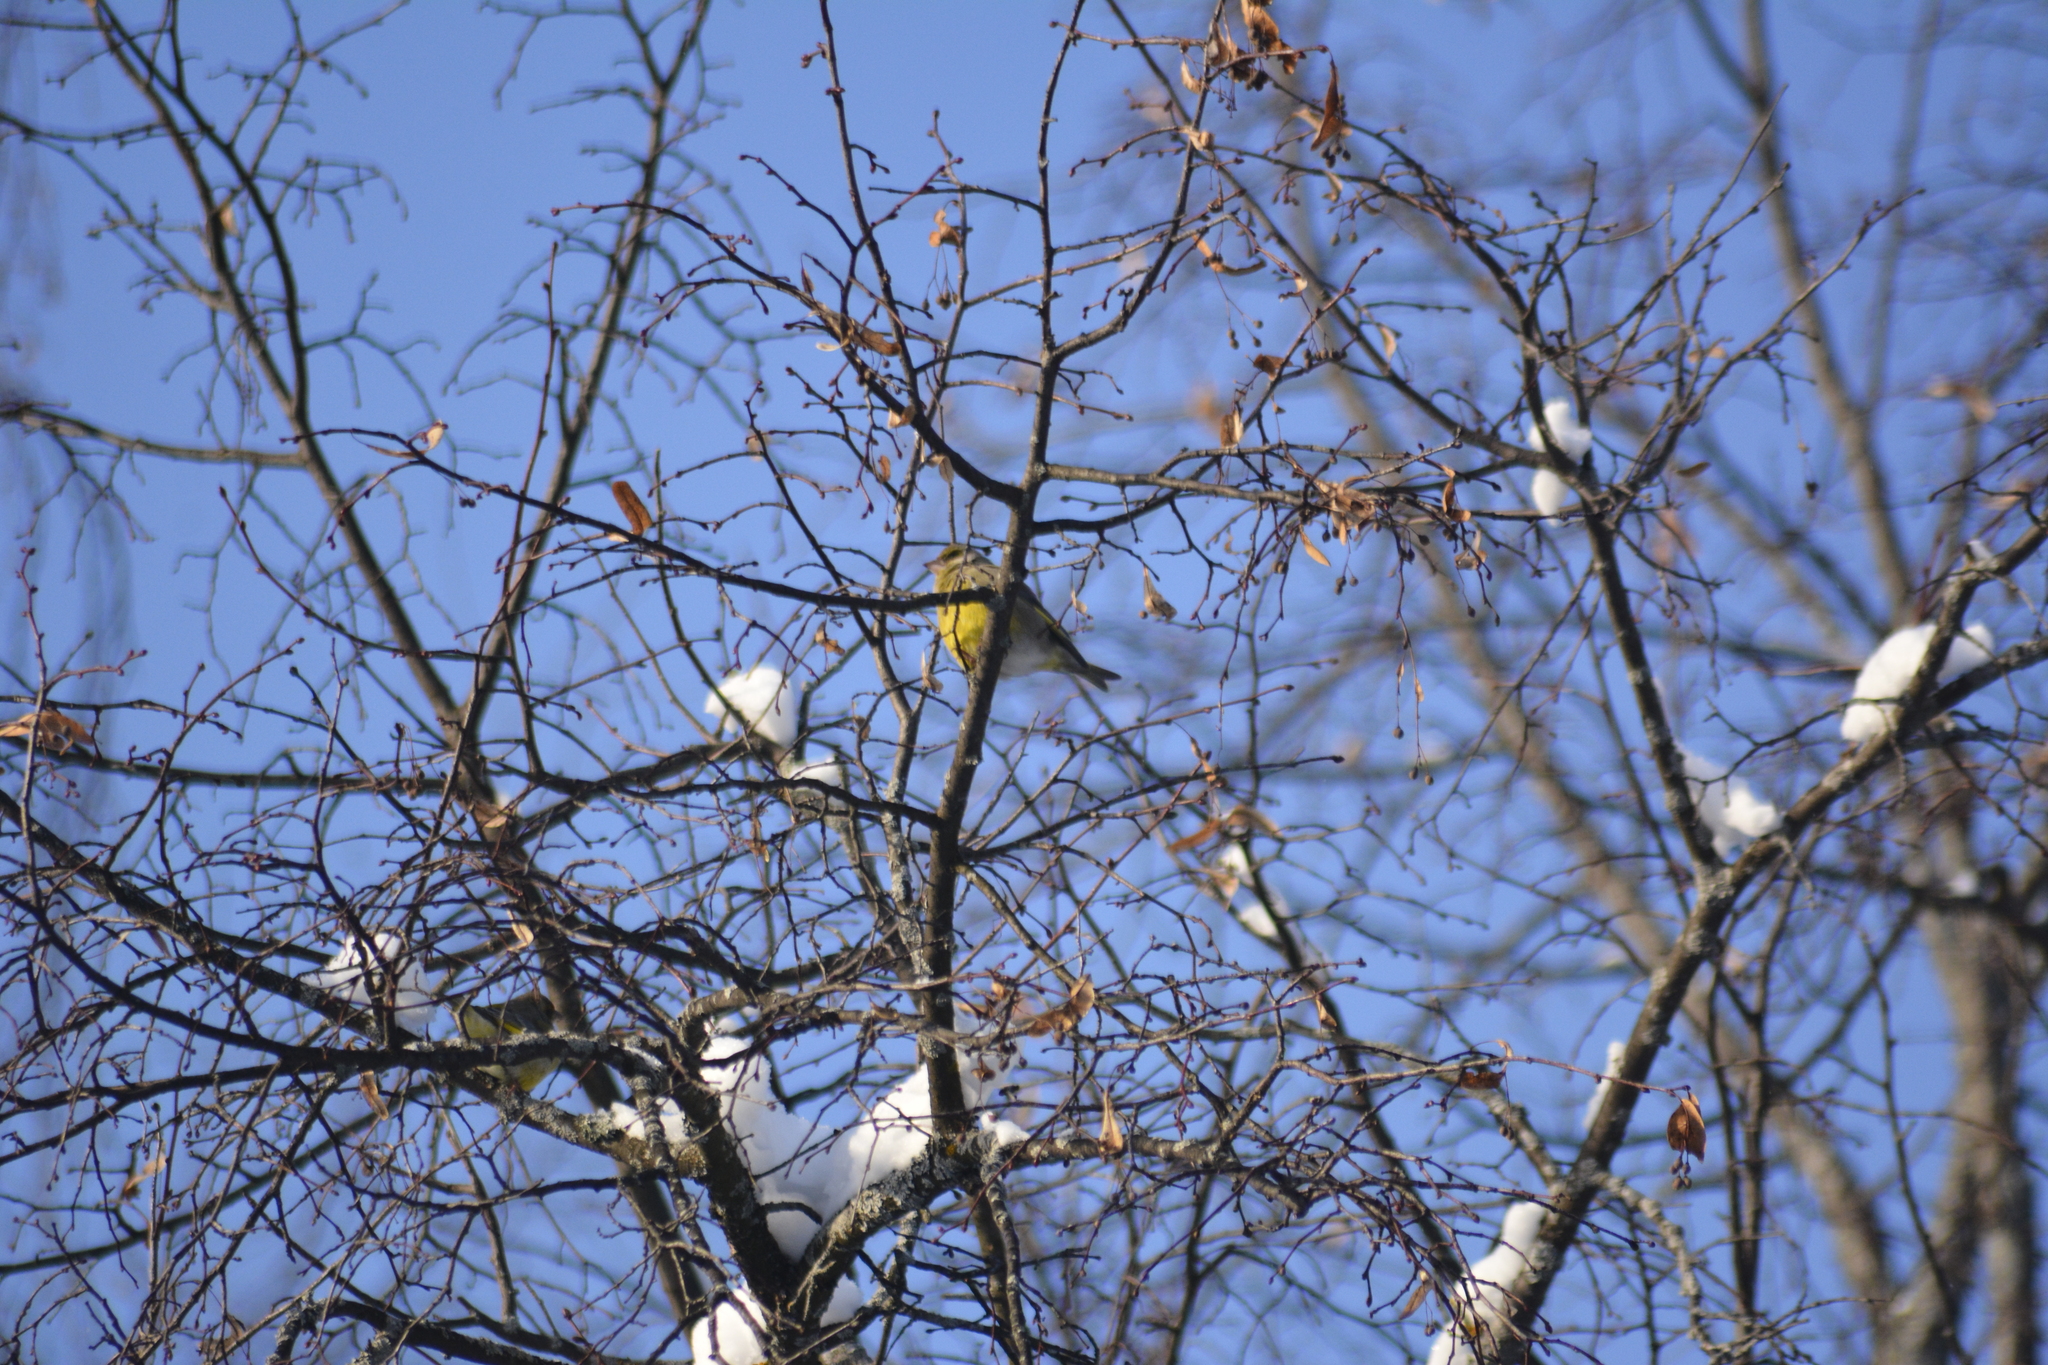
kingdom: Plantae
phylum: Tracheophyta
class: Liliopsida
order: Poales
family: Poaceae
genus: Chloris
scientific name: Chloris chloris
